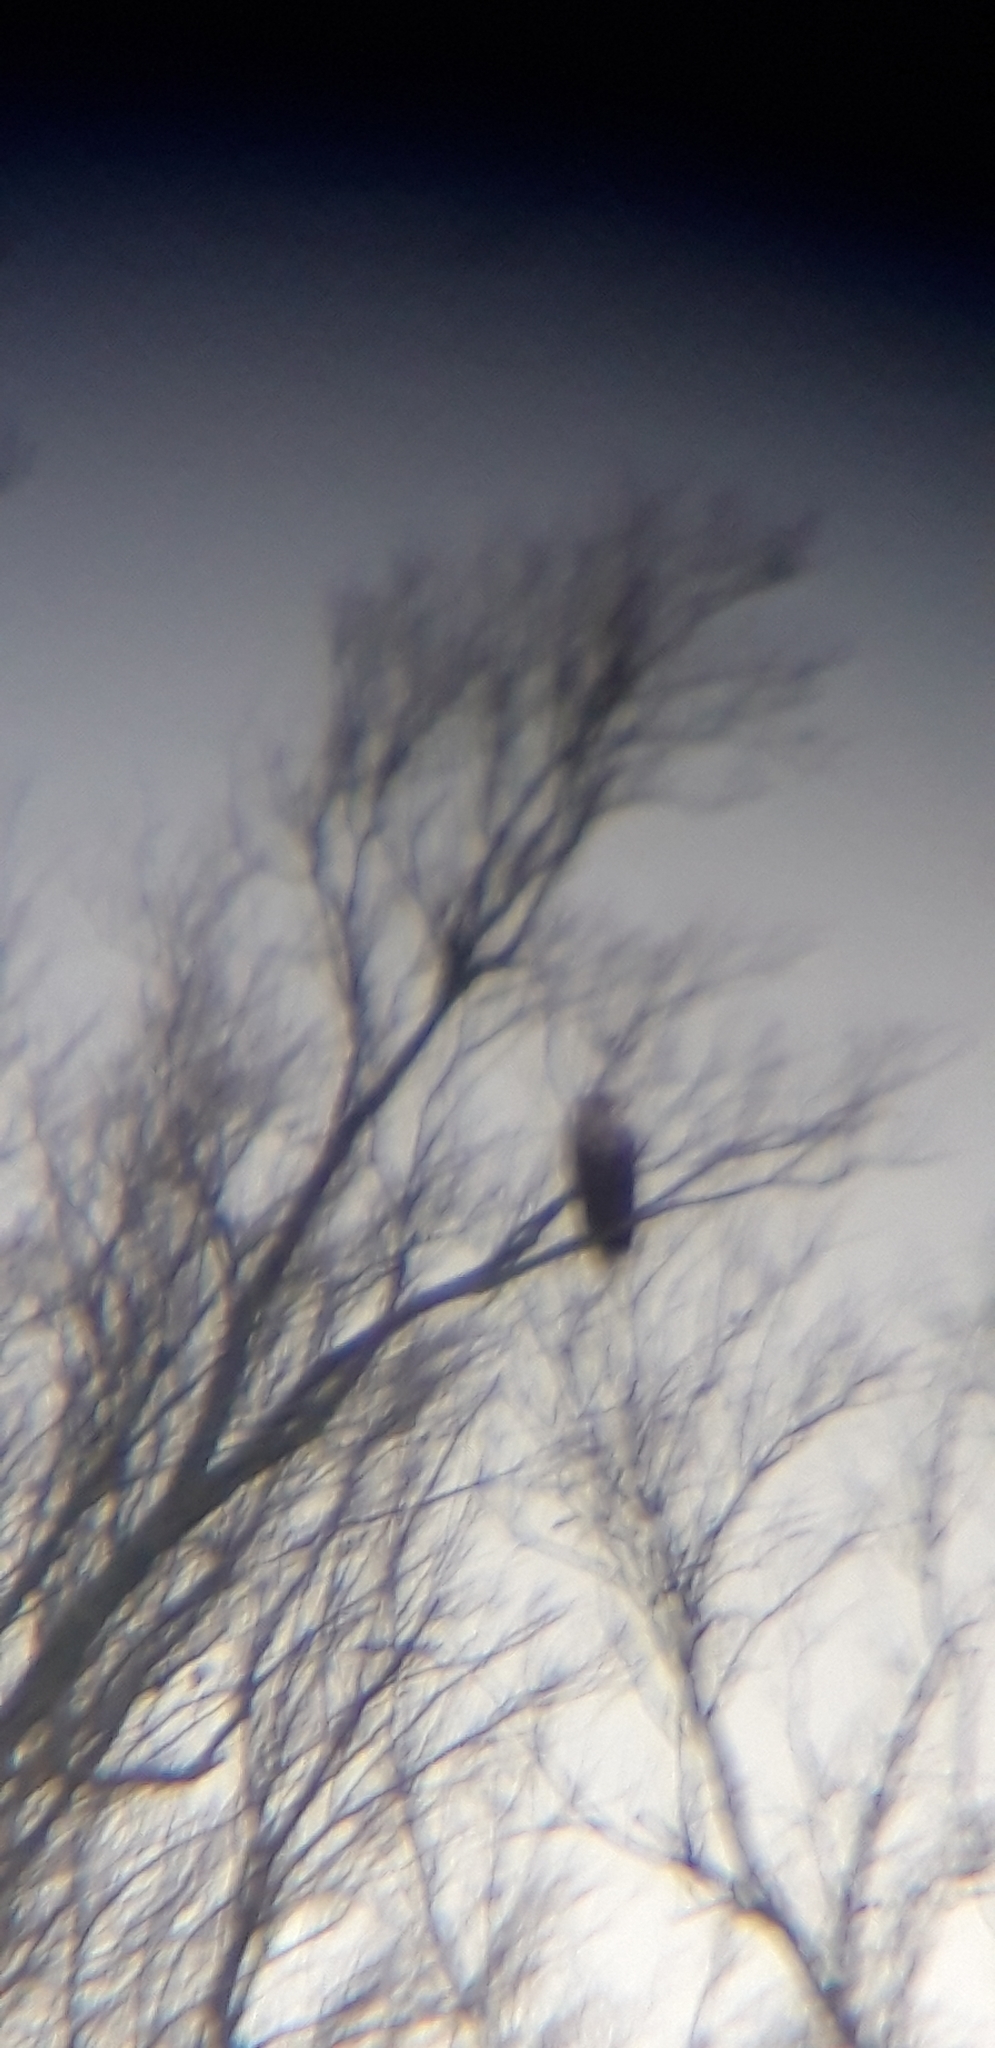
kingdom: Animalia
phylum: Chordata
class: Aves
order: Accipitriformes
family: Accipitridae
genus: Haliaeetus
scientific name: Haliaeetus albicilla
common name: White-tailed eagle
